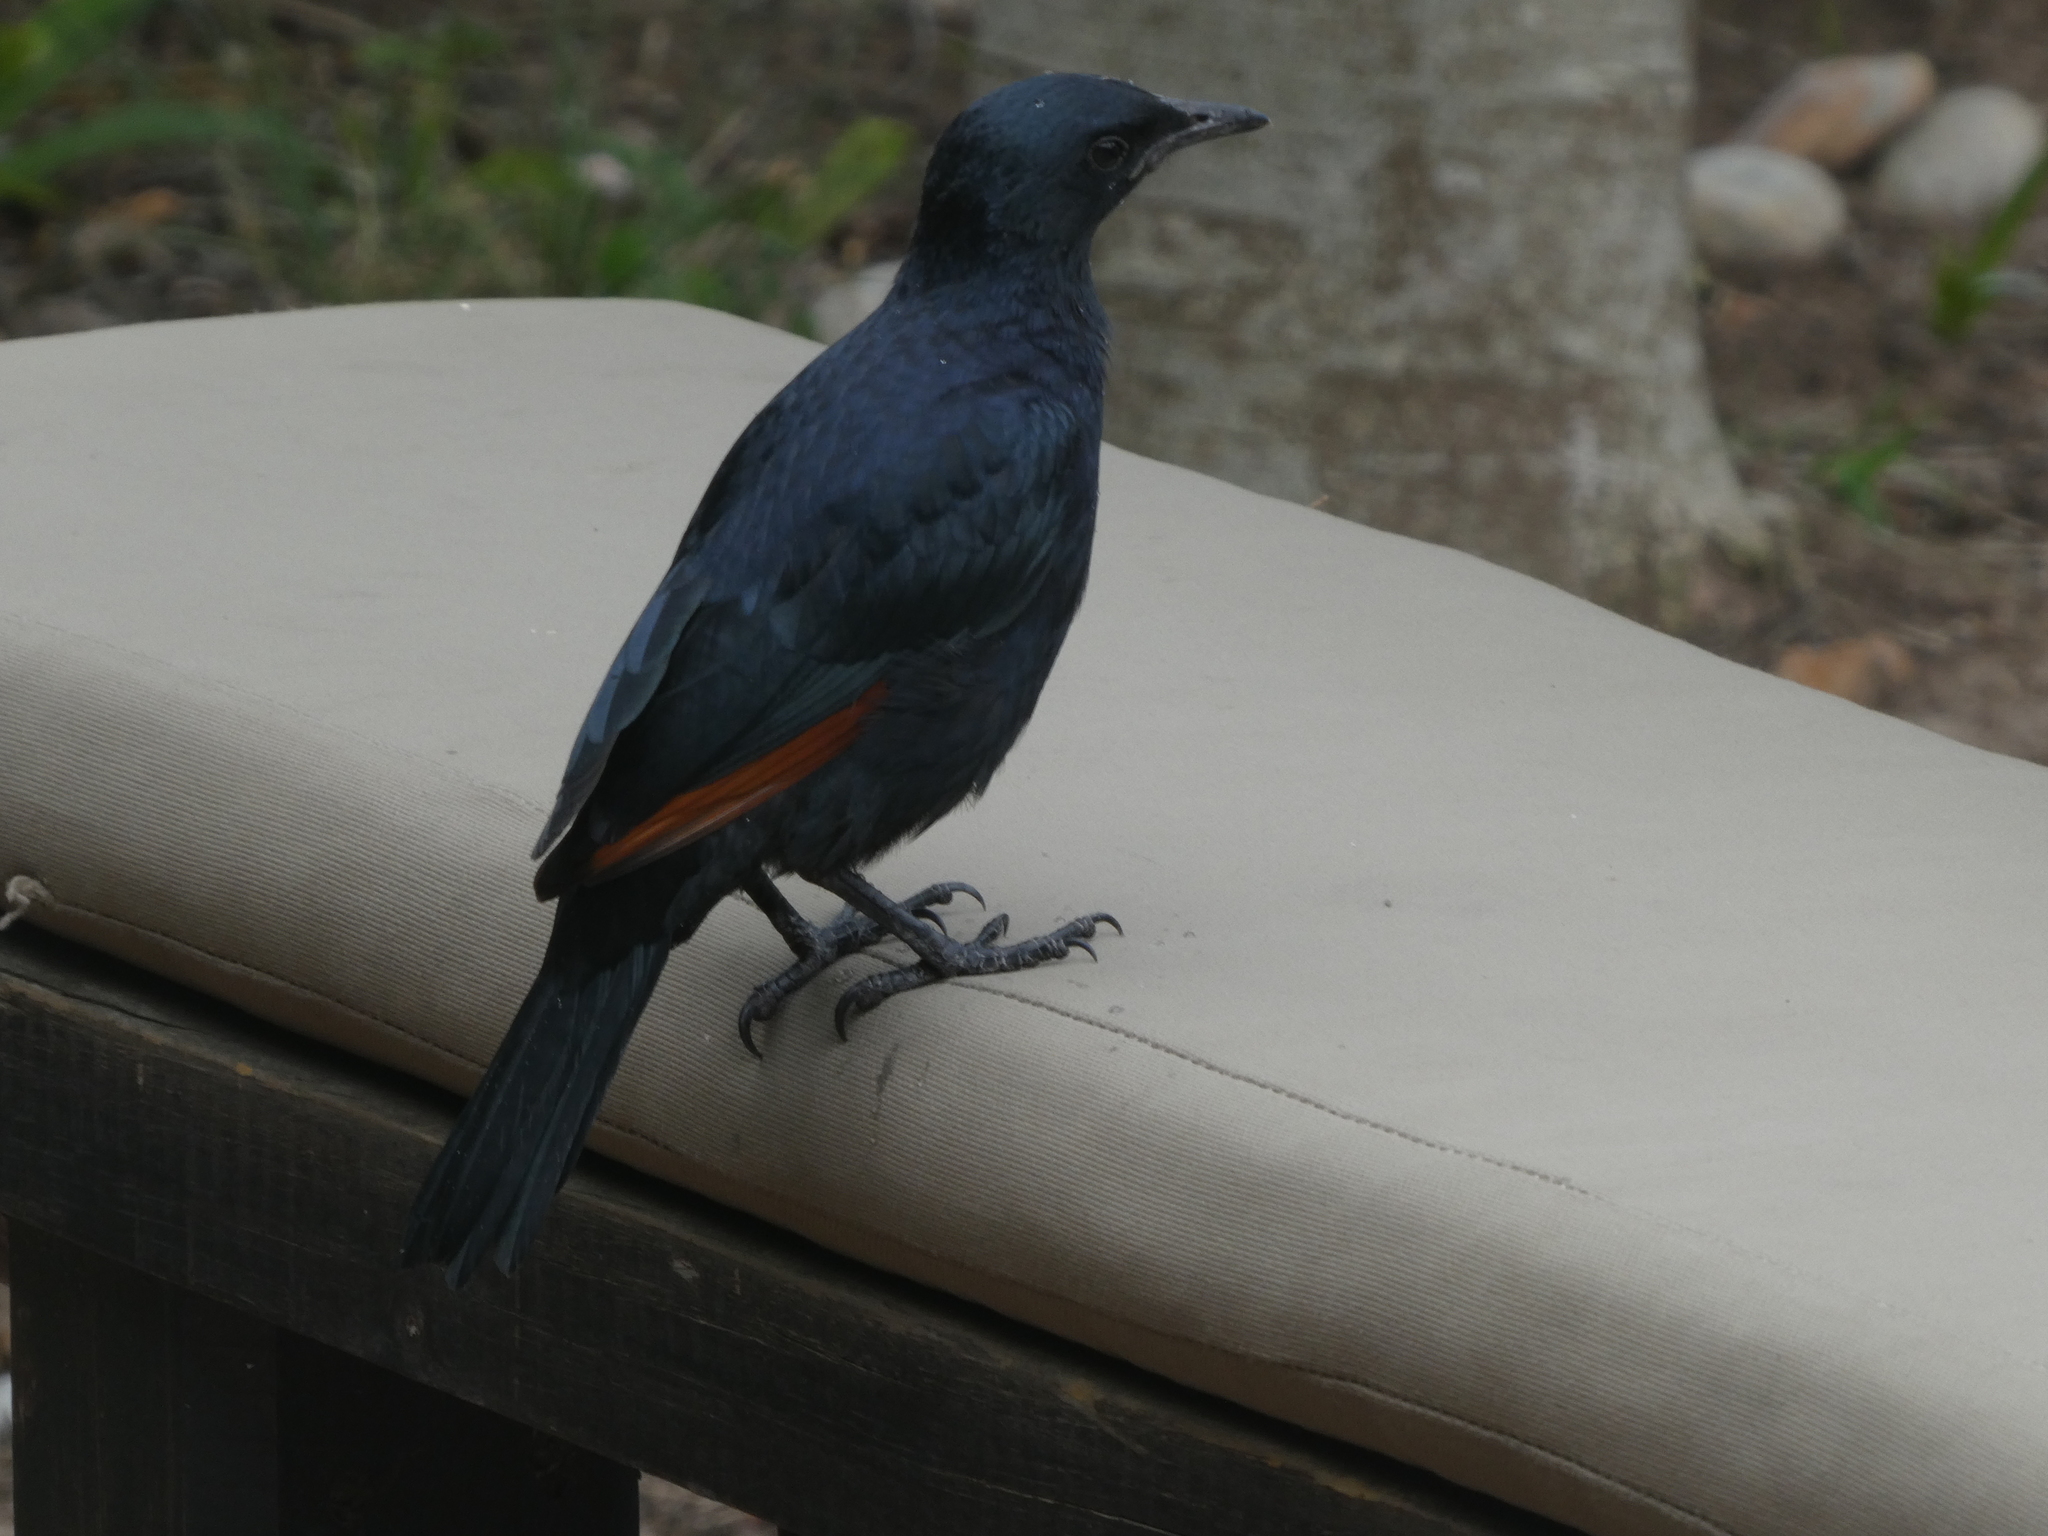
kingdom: Animalia
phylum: Chordata
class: Aves
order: Passeriformes
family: Sturnidae
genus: Onychognathus
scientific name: Onychognathus morio
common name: Red-winged starling
